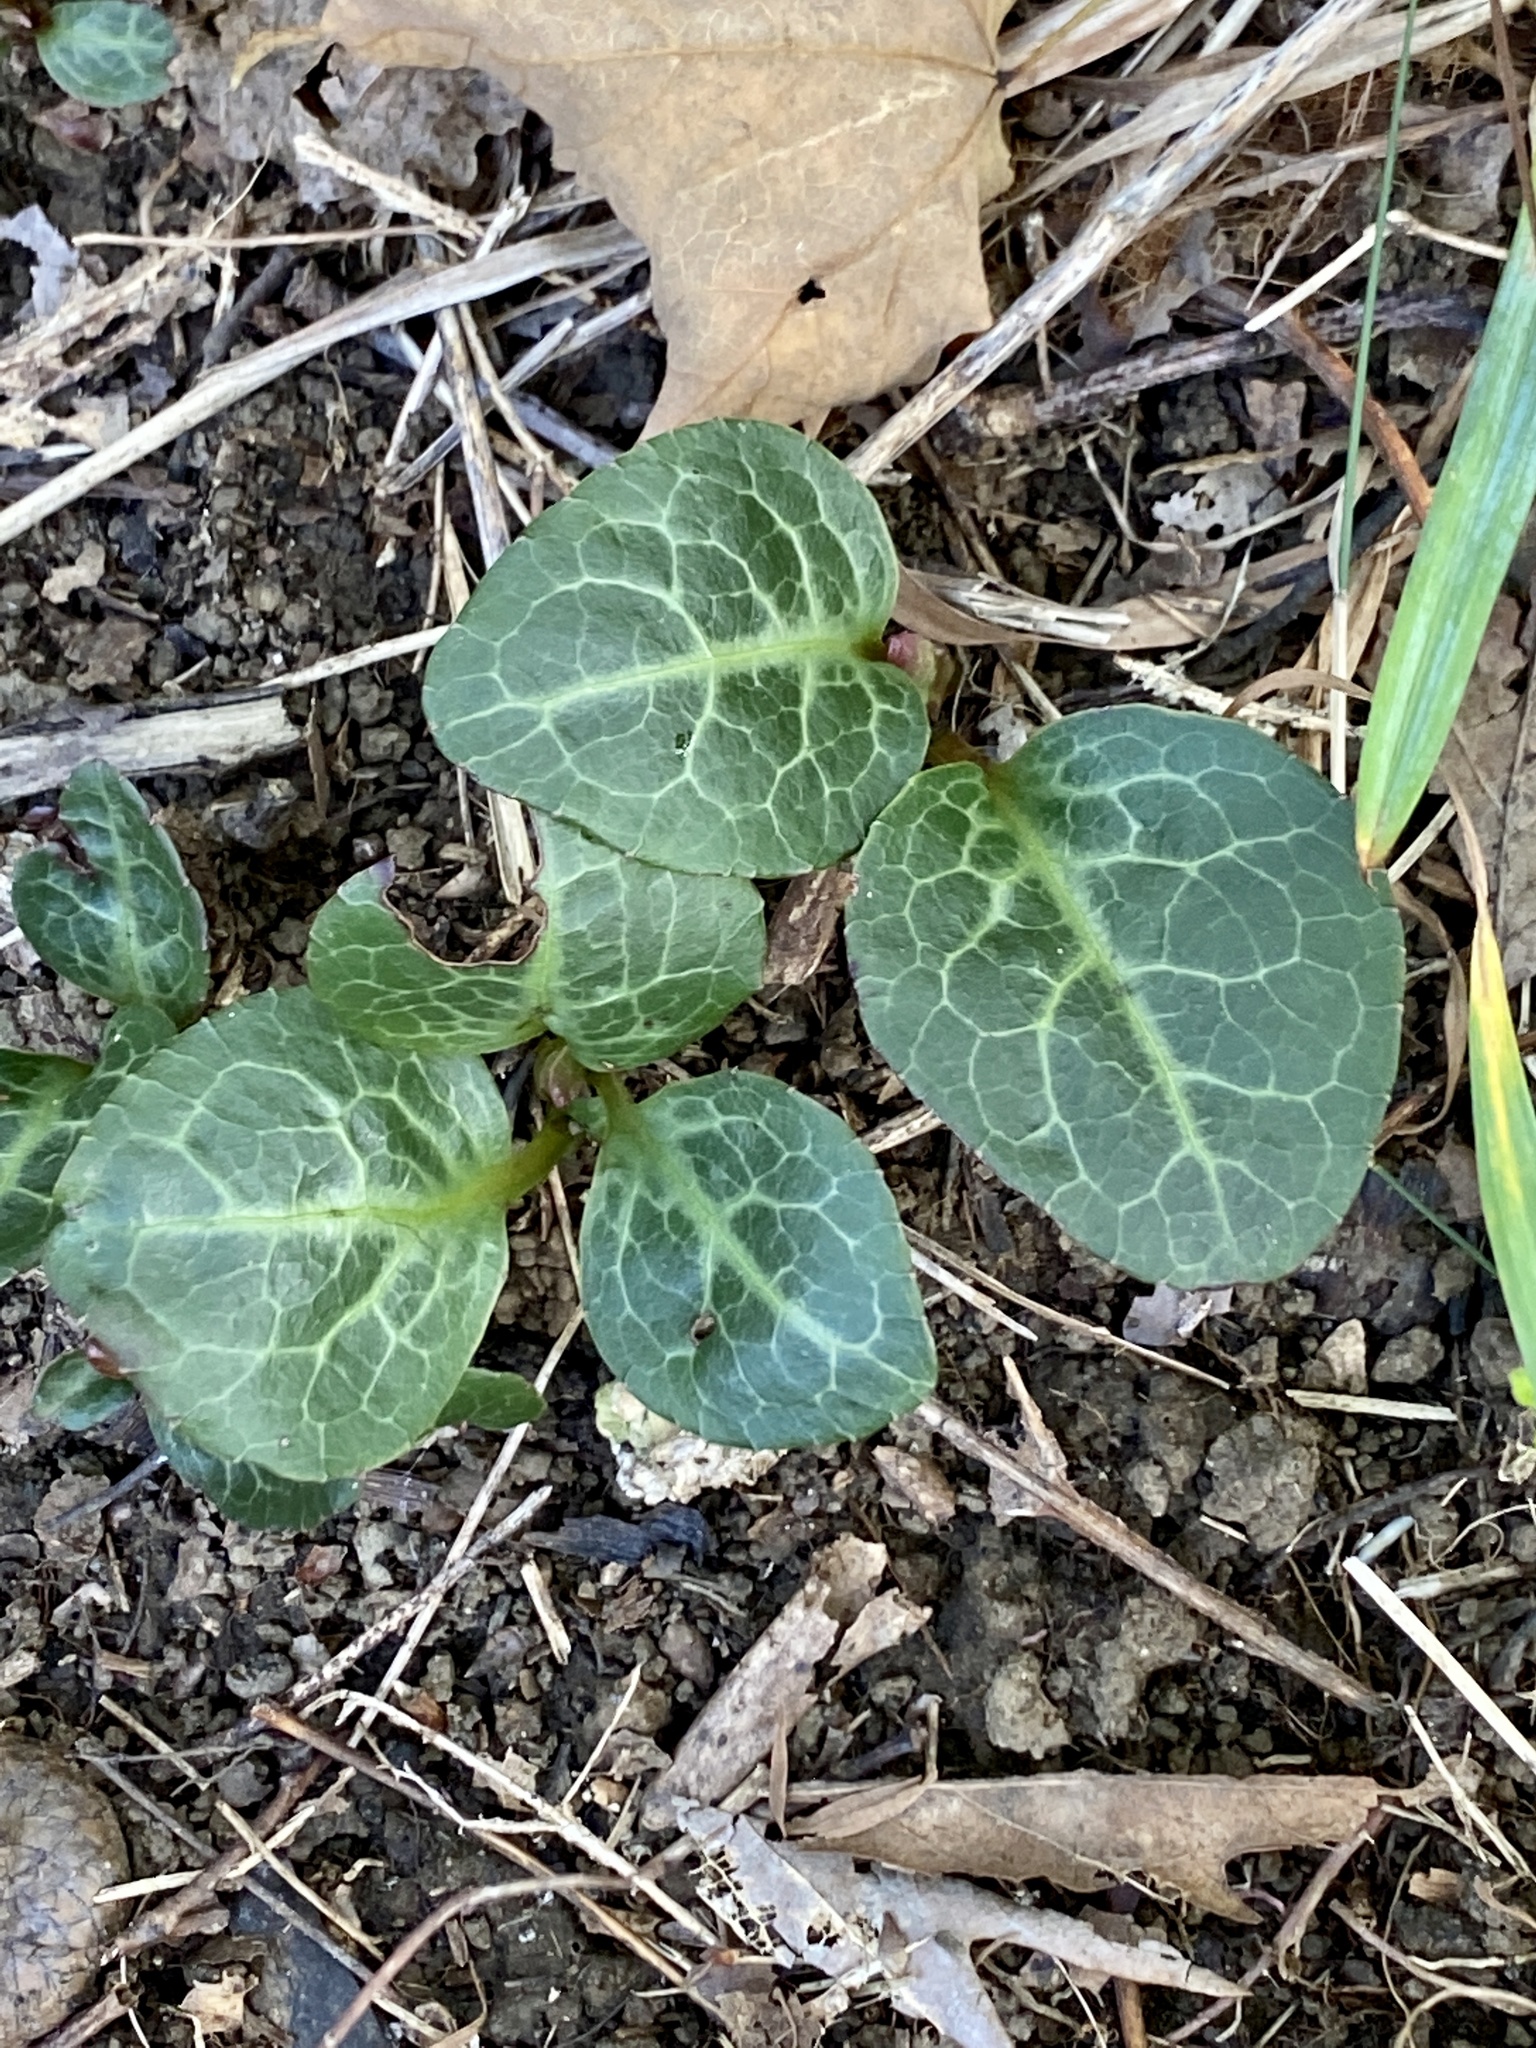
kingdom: Plantae
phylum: Tracheophyta
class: Magnoliopsida
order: Ericales
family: Ericaceae
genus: Pyrola
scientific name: Pyrola americana
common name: American wintergreen
